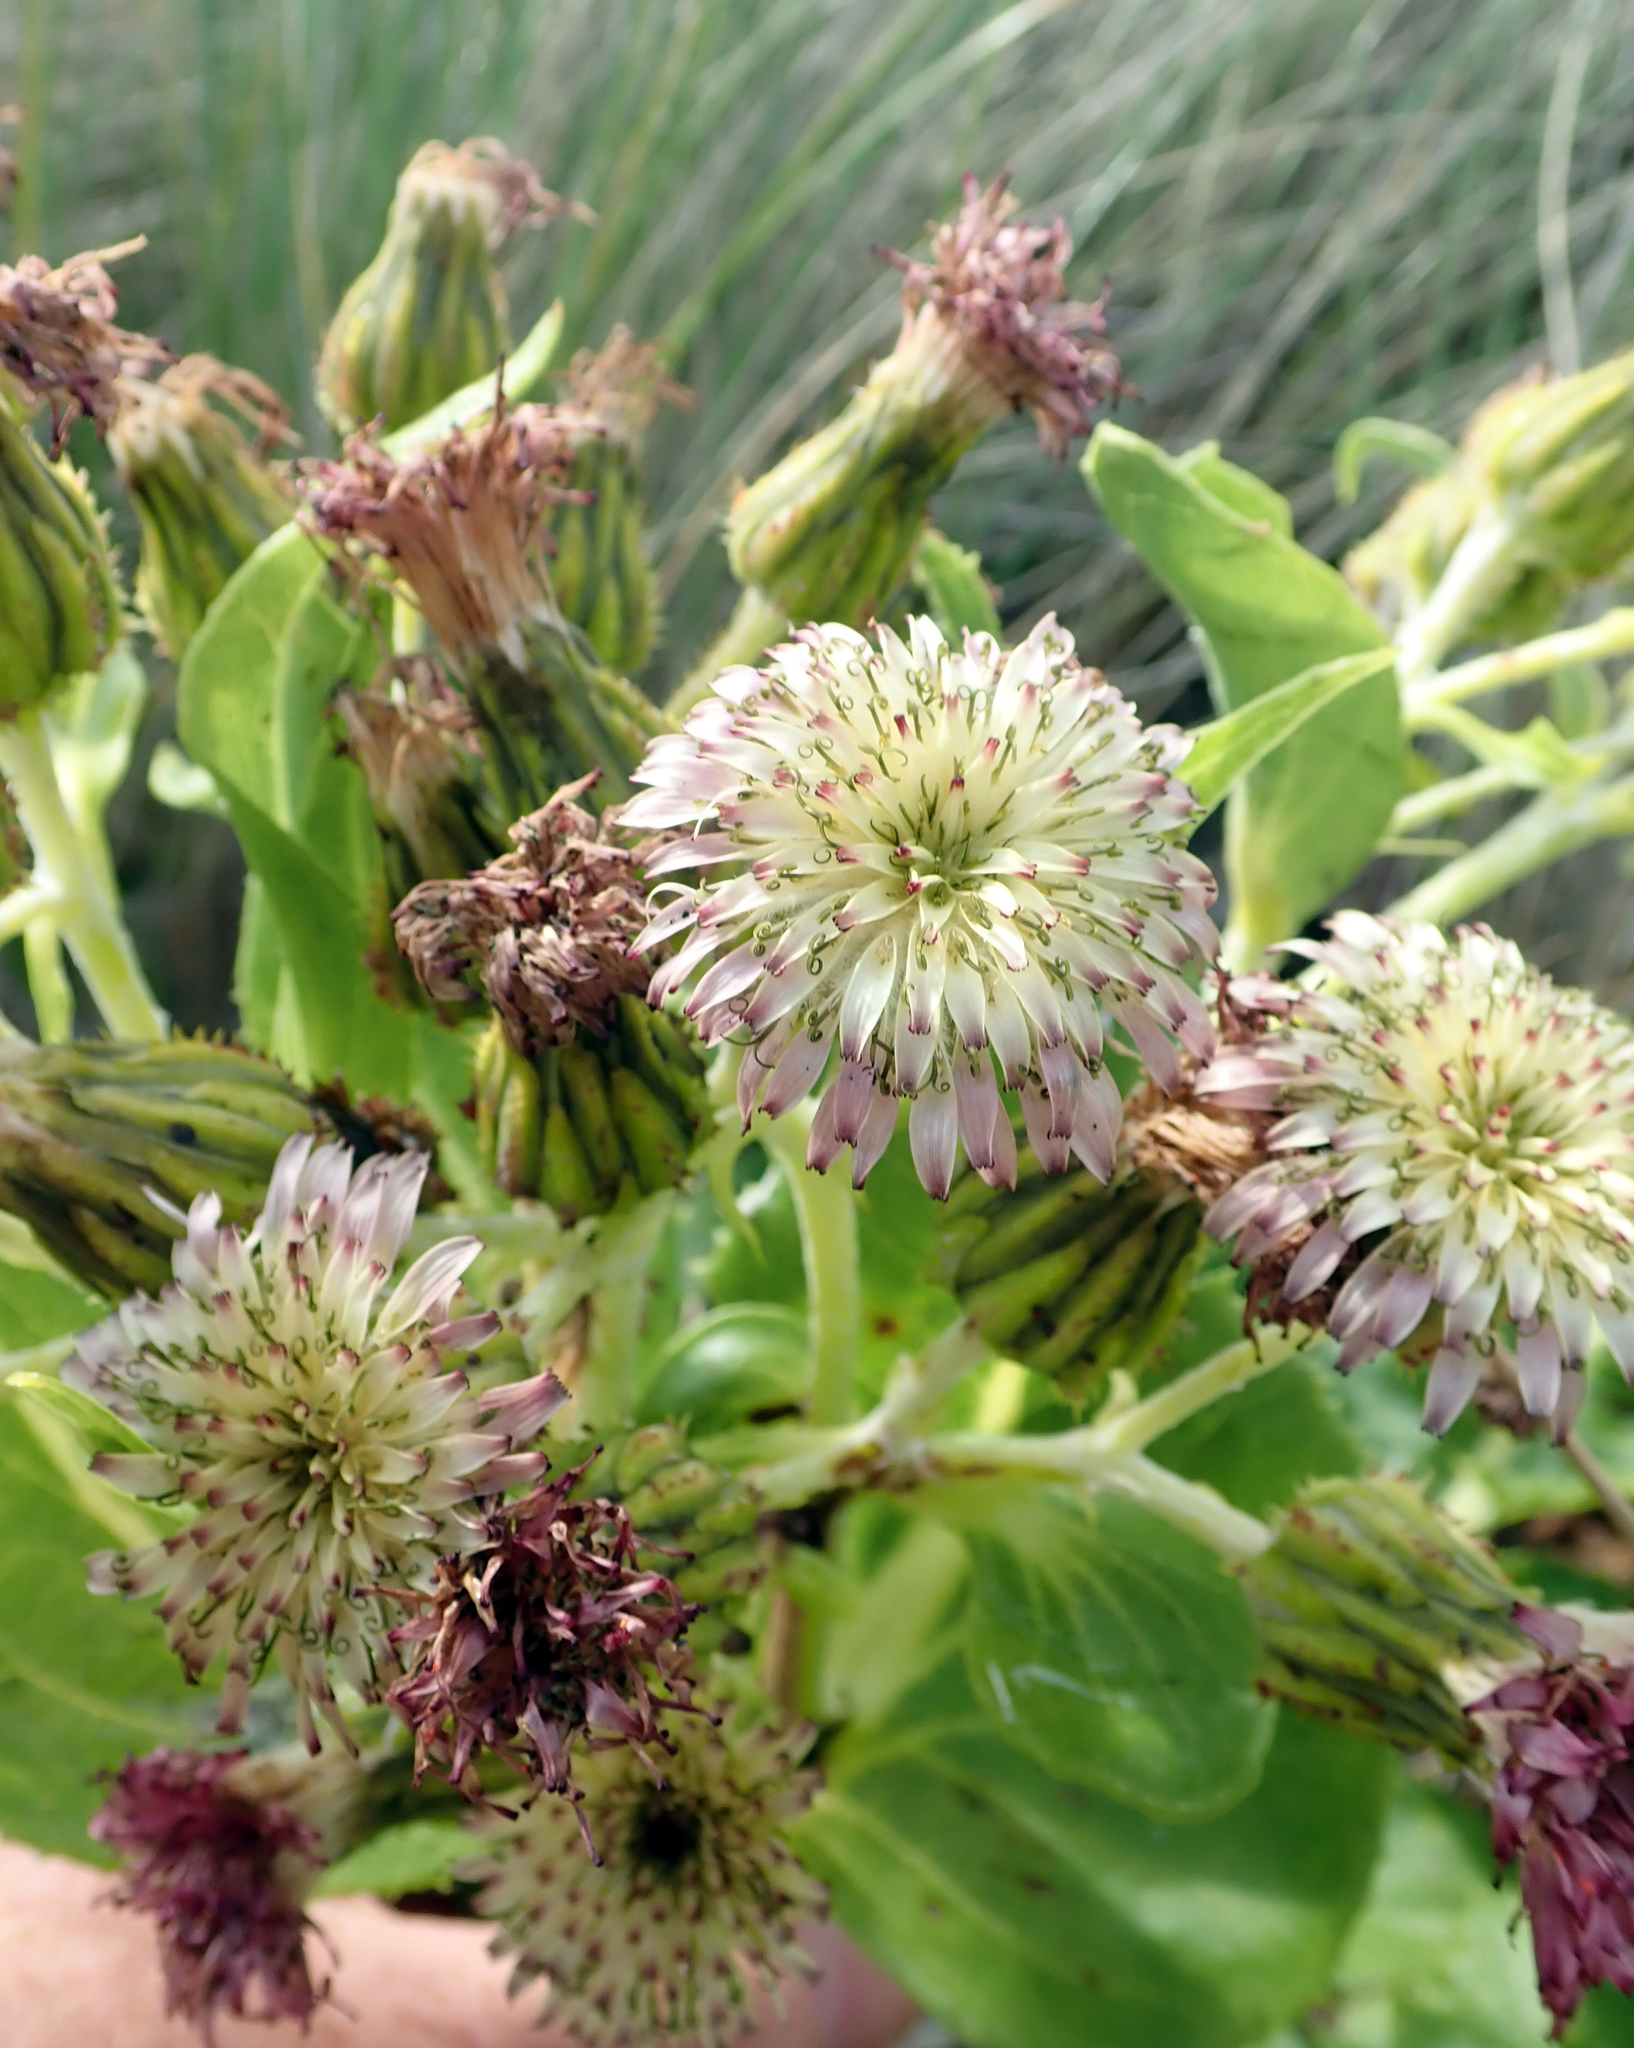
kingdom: Plantae
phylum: Tracheophyta
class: Magnoliopsida
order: Asterales
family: Asteraceae
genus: Sonchus
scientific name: Sonchus grandifolius
